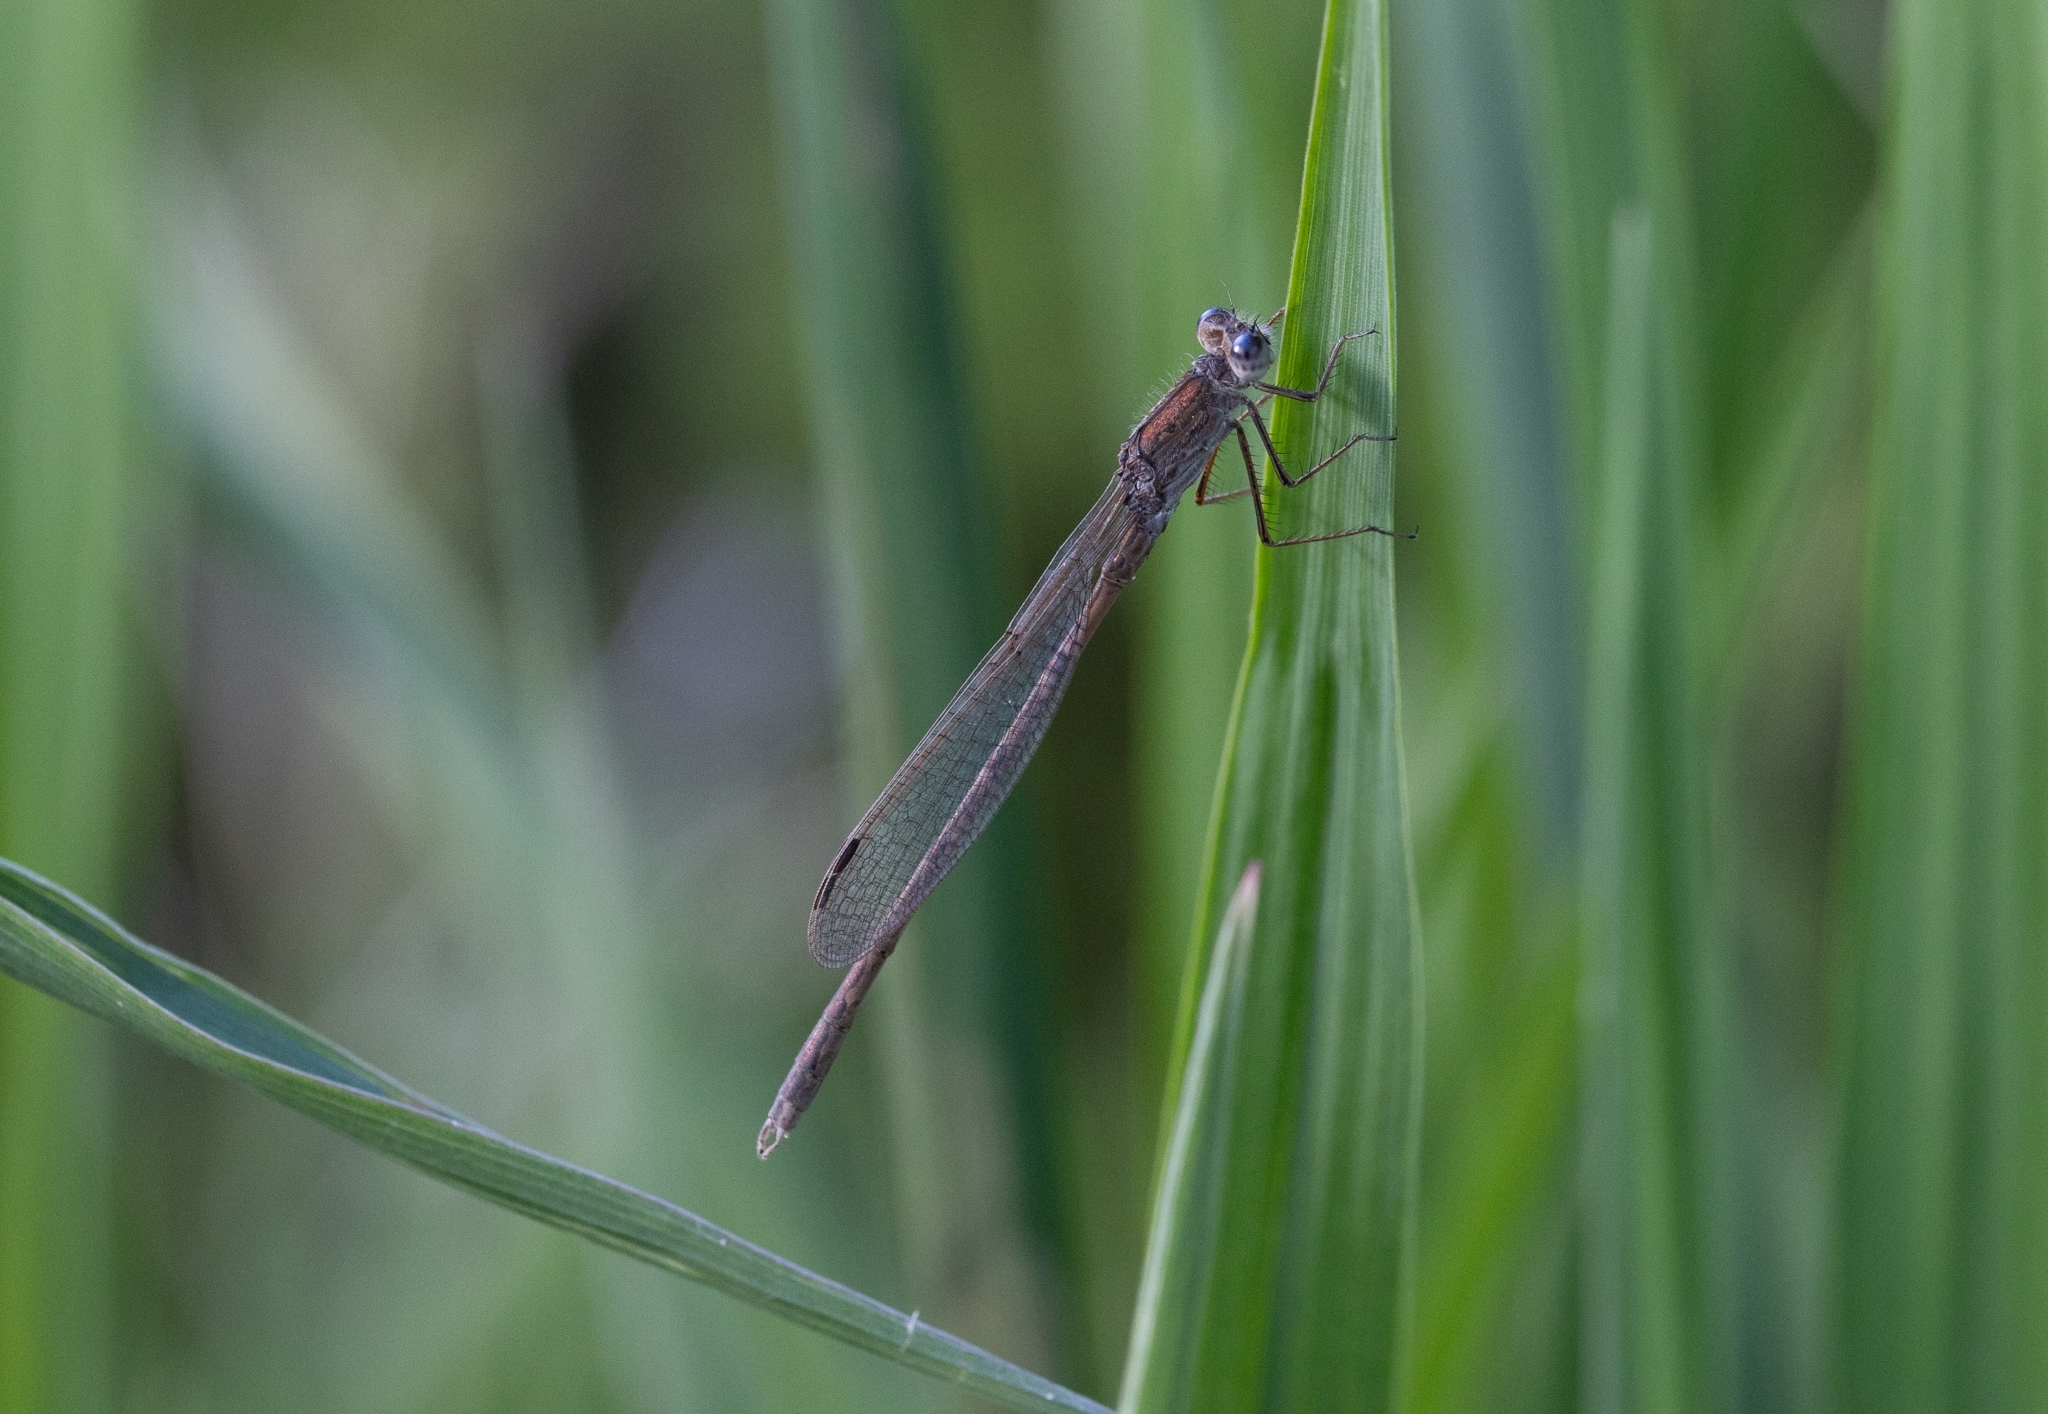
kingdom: Animalia
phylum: Arthropoda
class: Insecta
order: Odonata
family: Lestidae
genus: Sympecma
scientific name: Sympecma paedisca
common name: Siberian winter damsel
